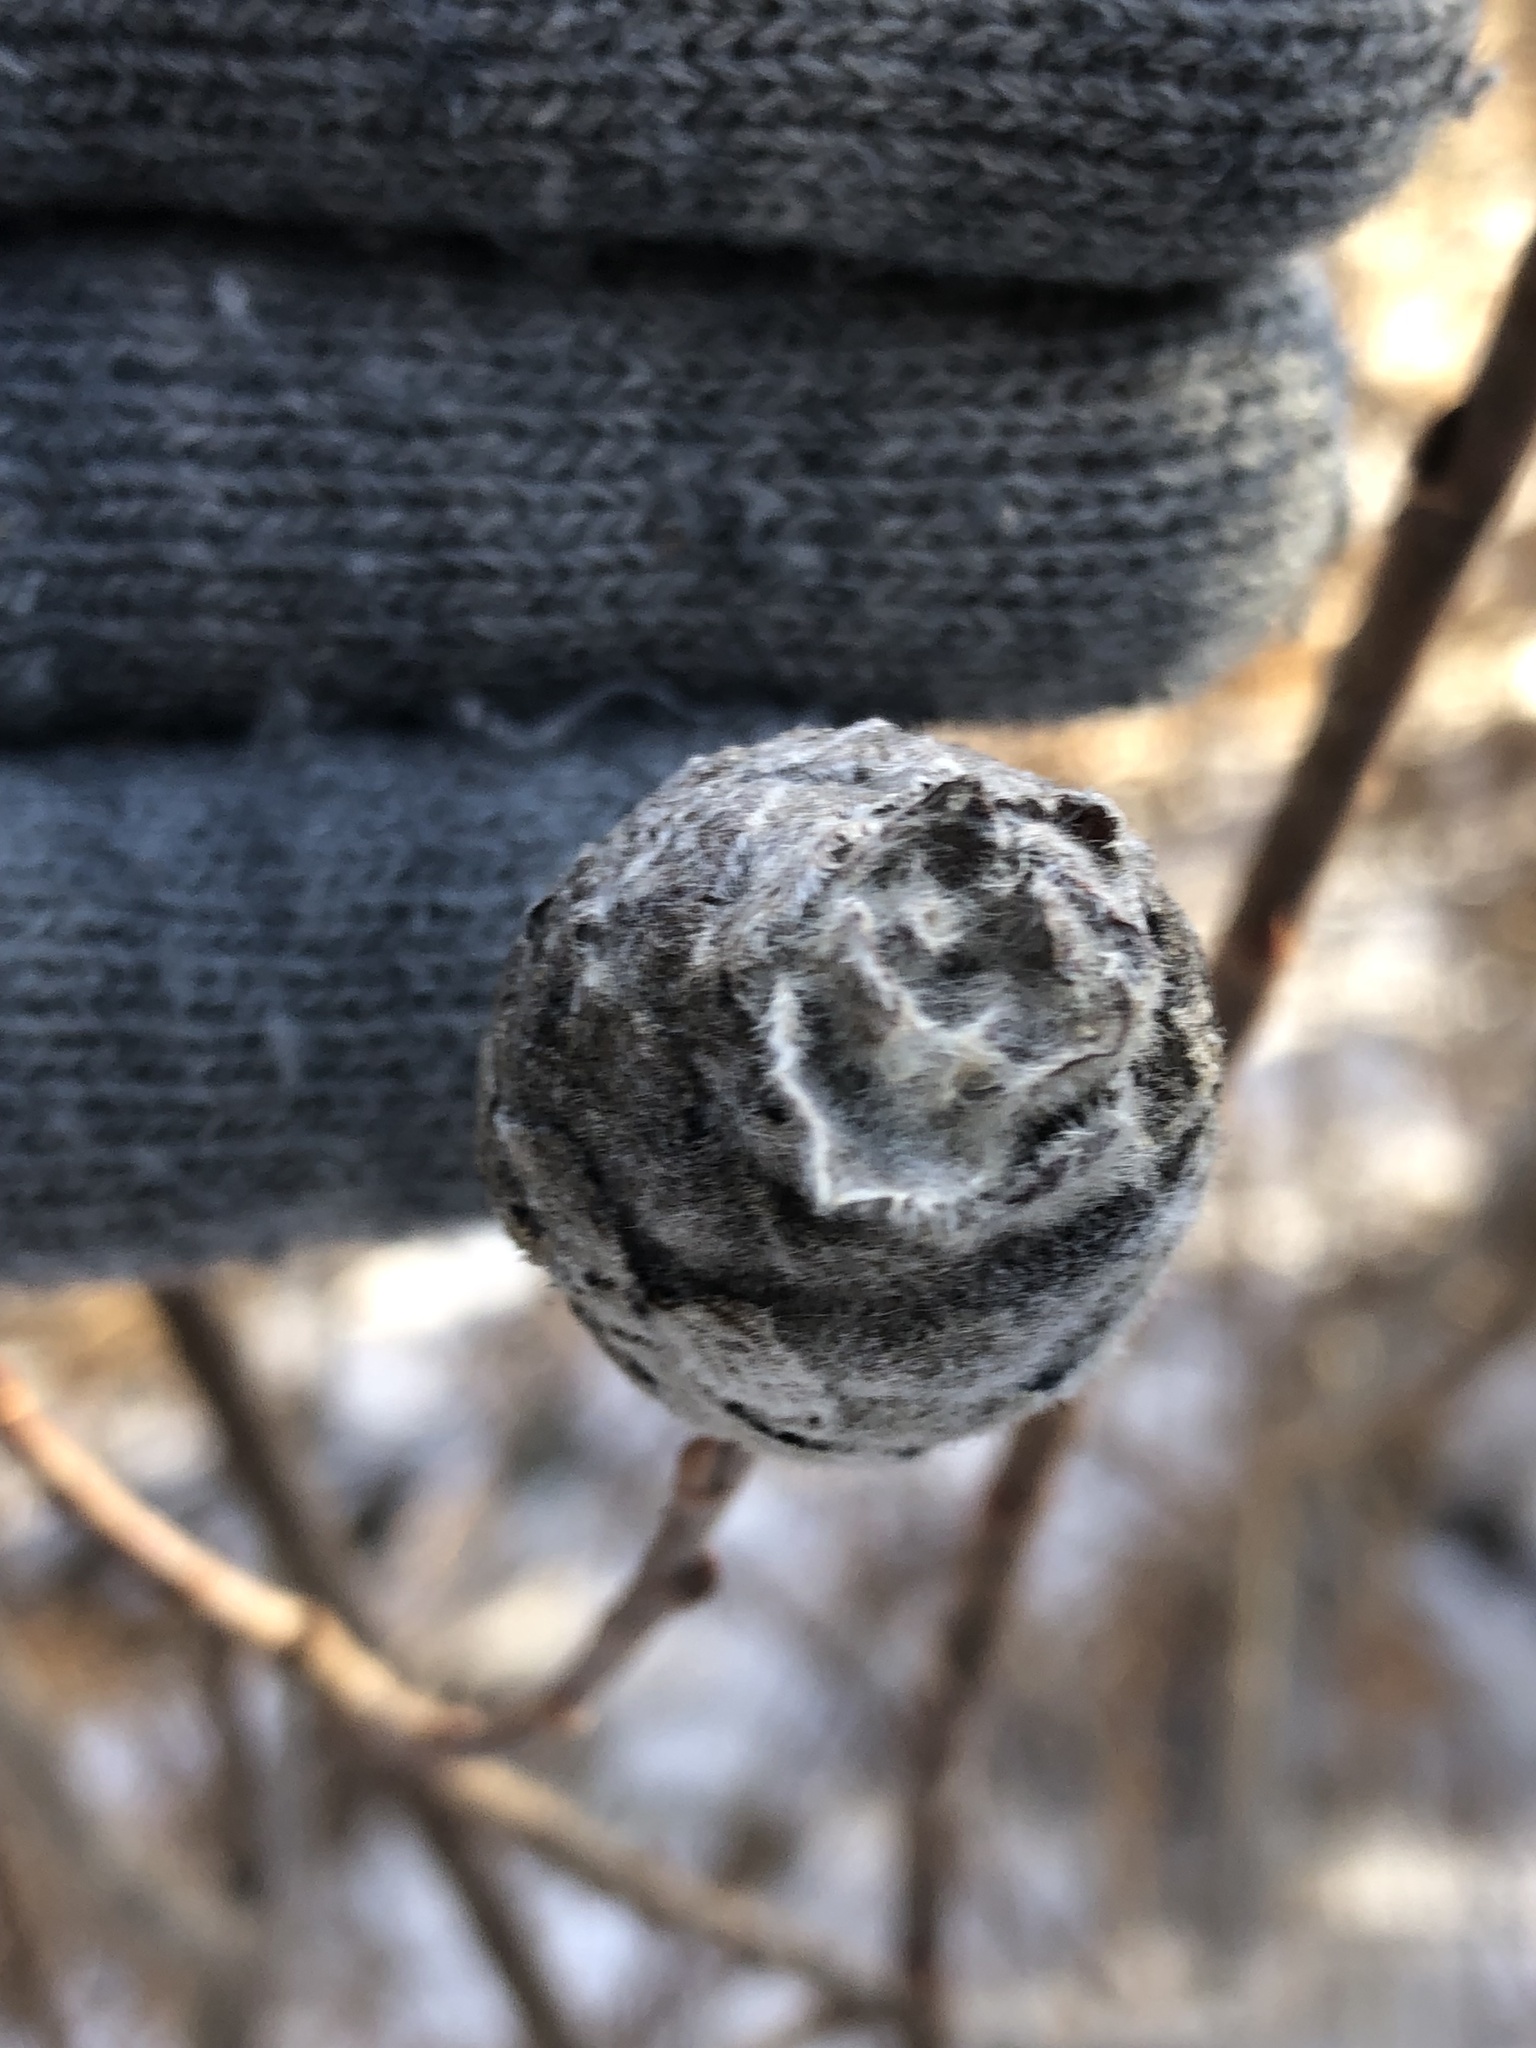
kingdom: Animalia
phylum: Arthropoda
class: Insecta
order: Diptera
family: Cecidomyiidae
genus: Rabdophaga
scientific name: Rabdophaga strobiloides
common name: Willow pinecone gall midge
